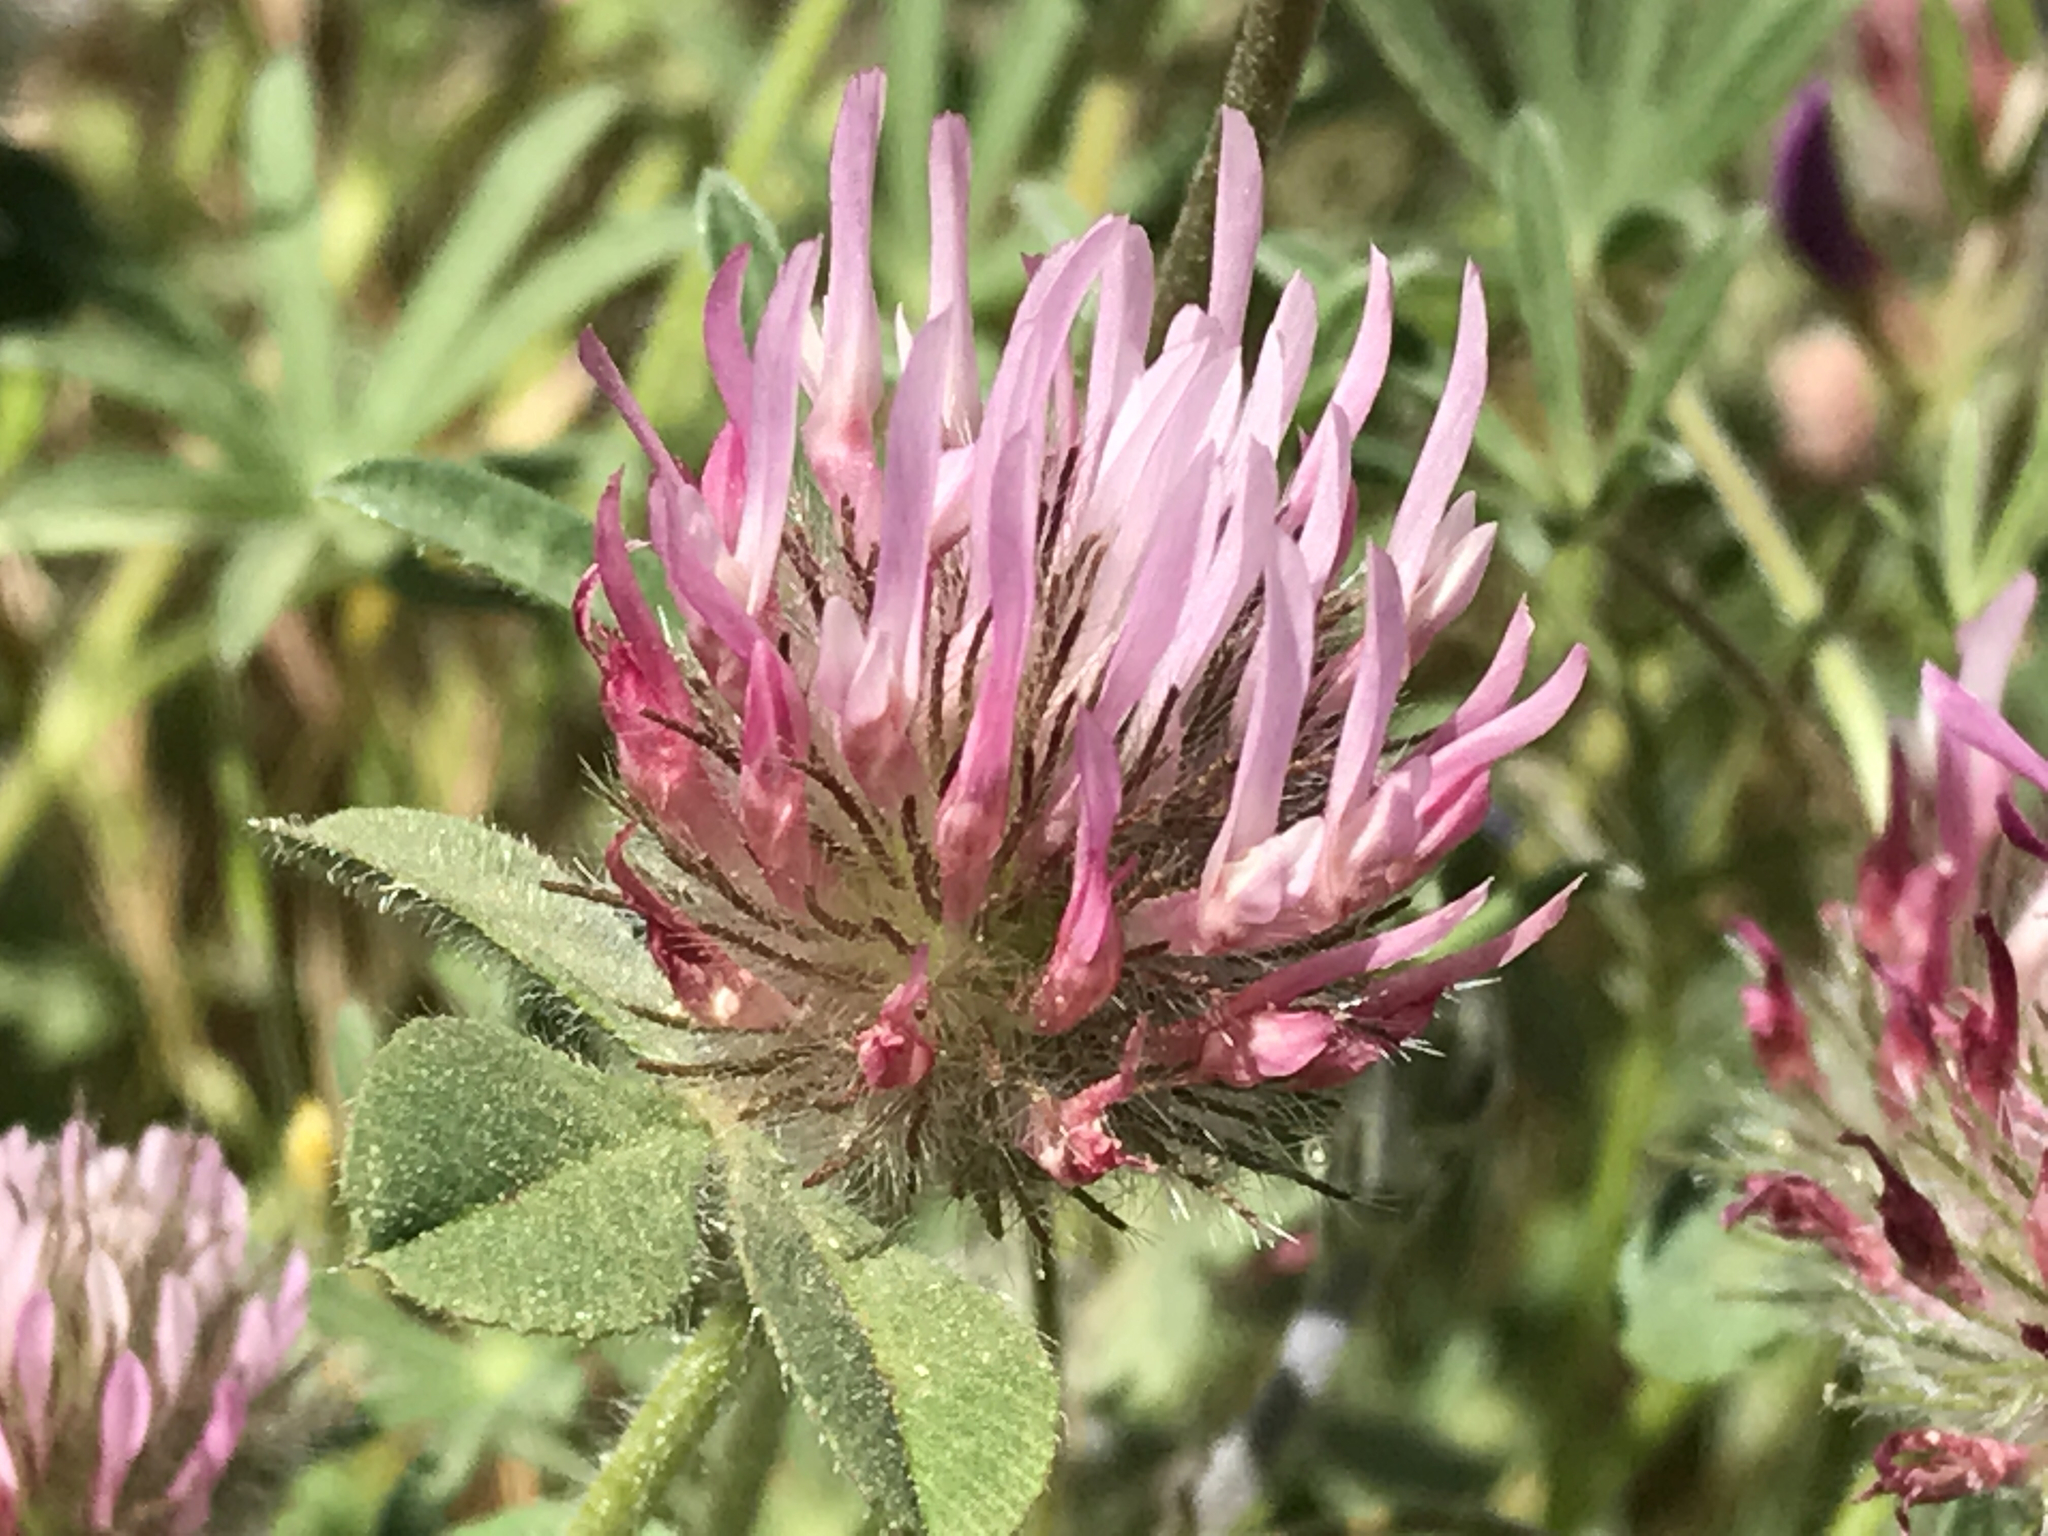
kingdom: Plantae
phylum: Tracheophyta
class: Magnoliopsida
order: Fabales
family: Fabaceae
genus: Trifolium
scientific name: Trifolium hirtum
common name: Rose clover
